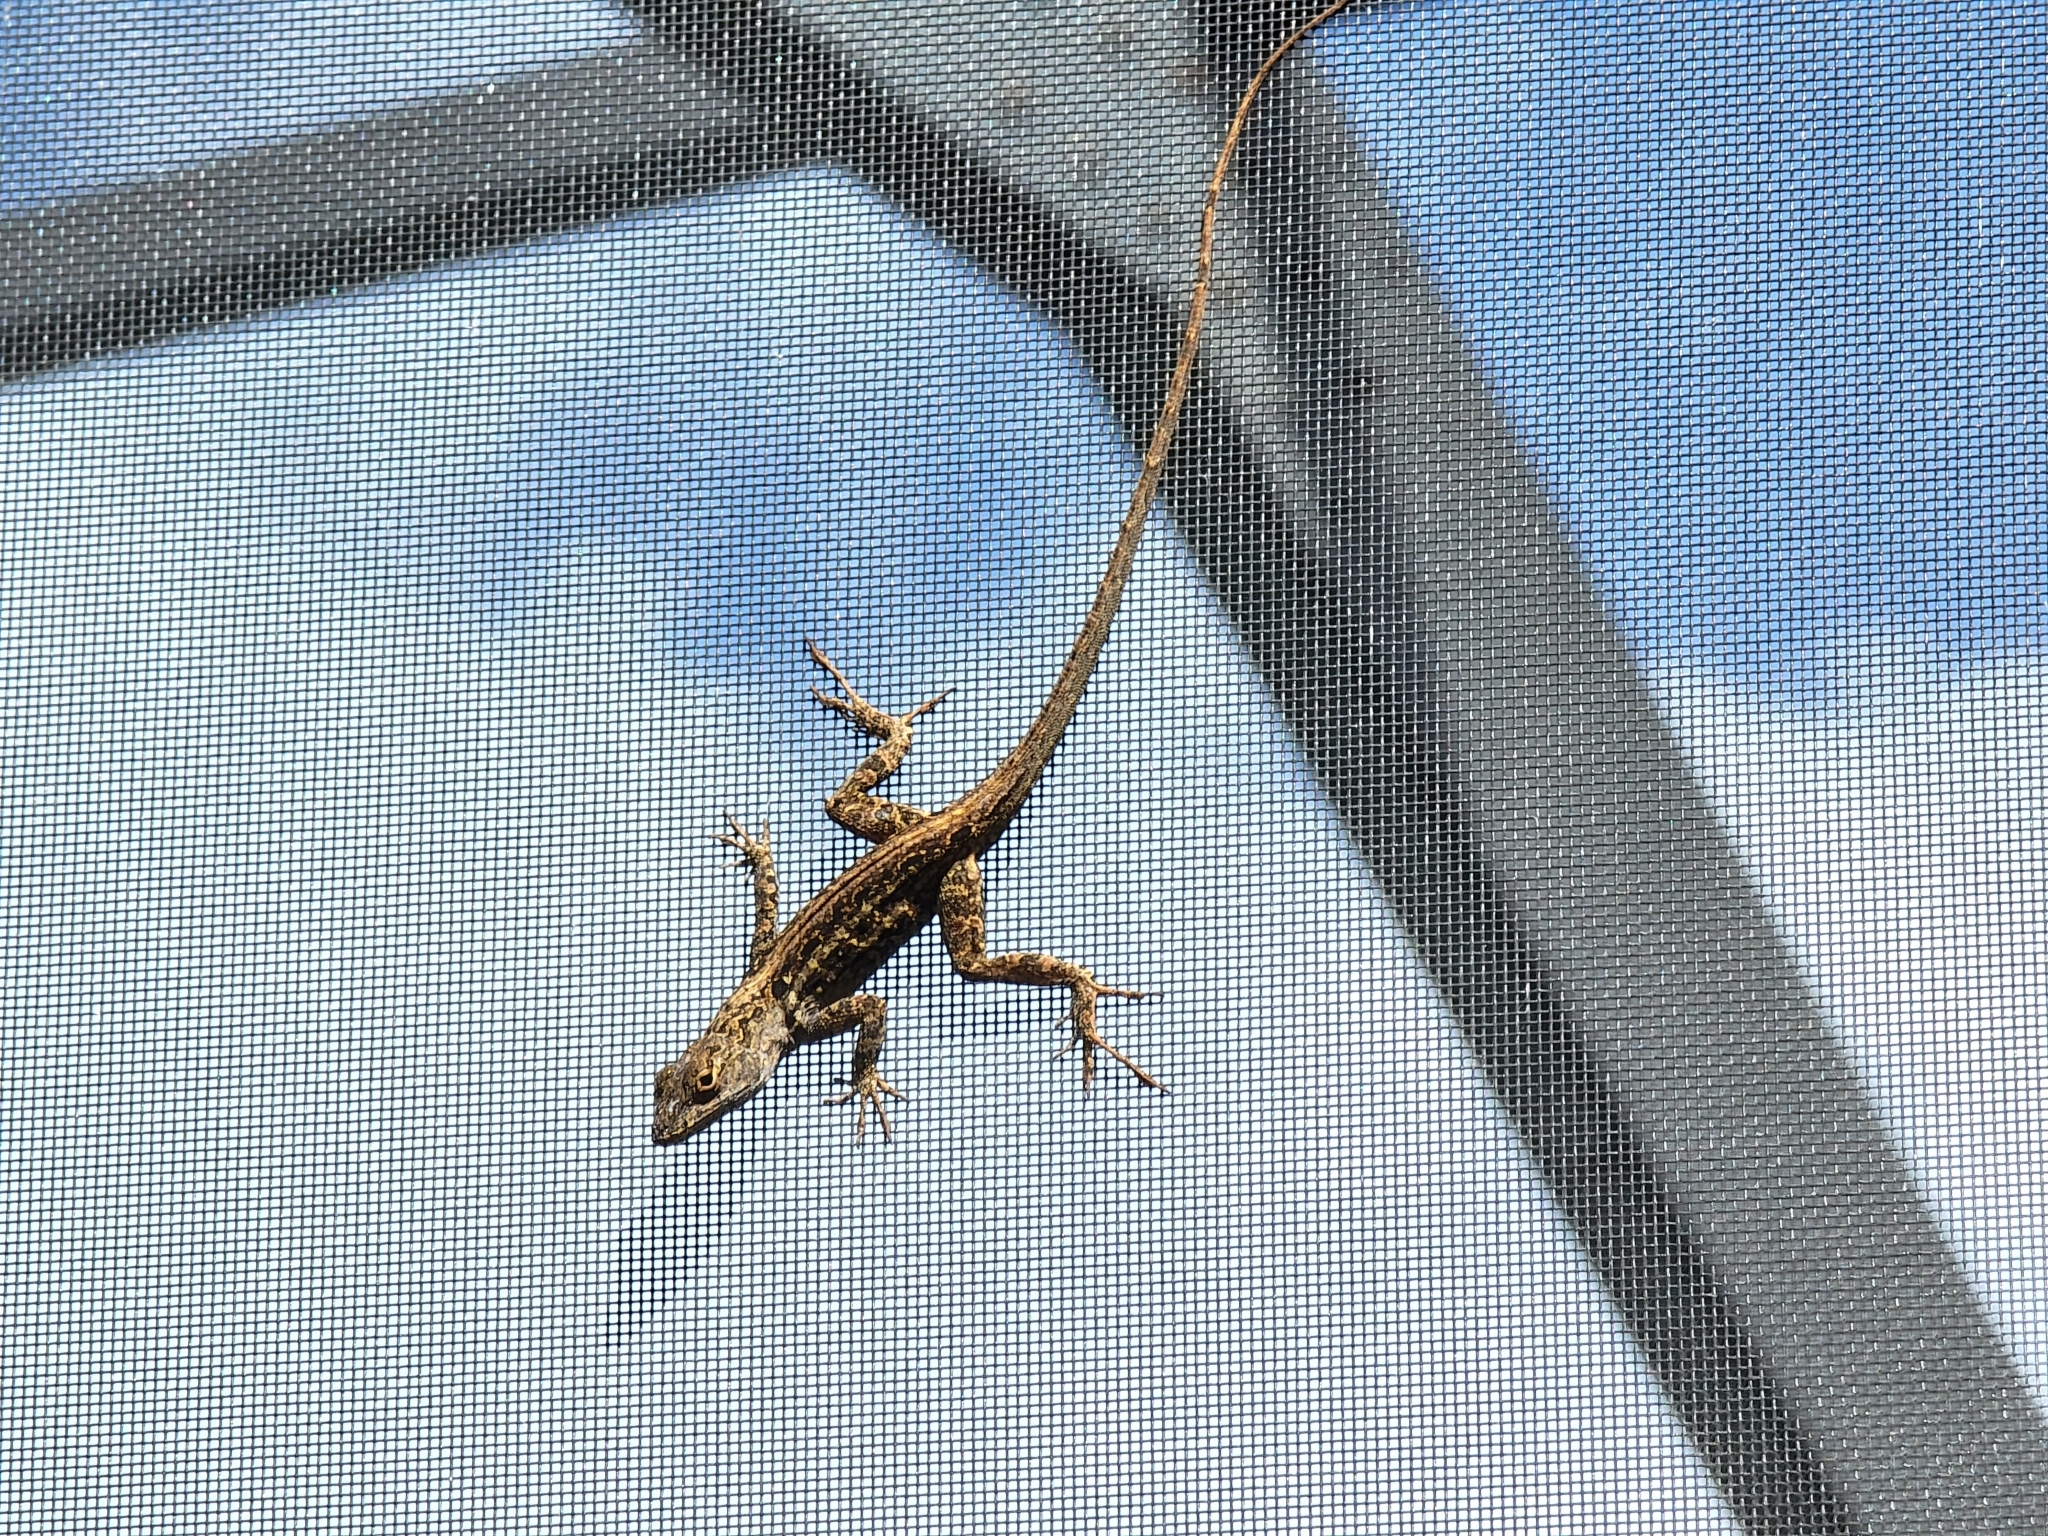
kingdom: Animalia
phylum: Chordata
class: Squamata
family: Dactyloidae
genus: Anolis
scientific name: Anolis sagrei
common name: Brown anole
